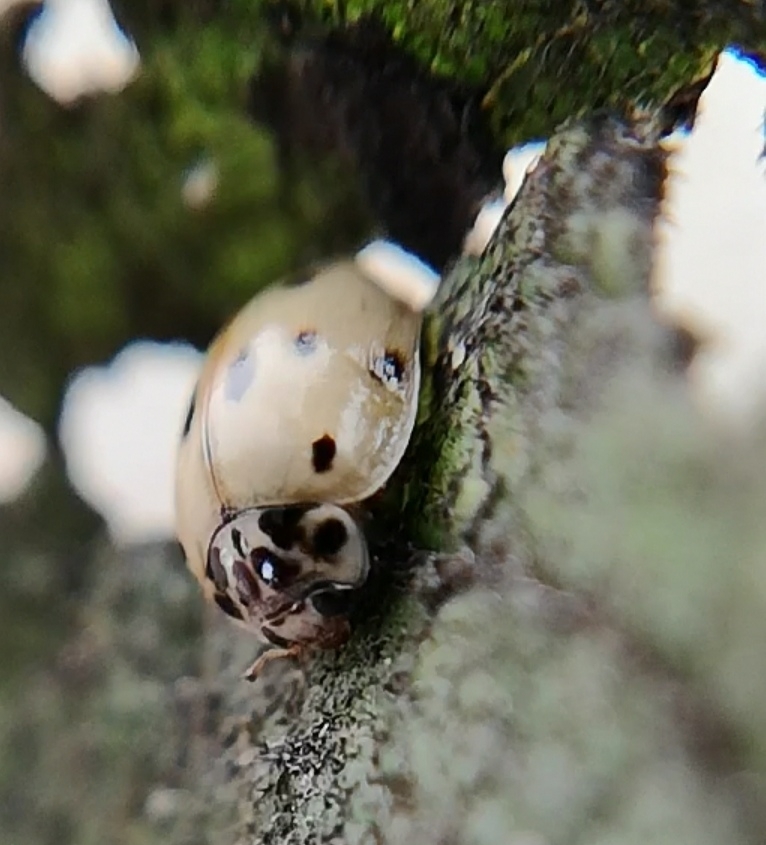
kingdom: Animalia
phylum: Arthropoda
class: Insecta
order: Coleoptera
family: Coccinellidae
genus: Adalia
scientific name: Adalia decempunctata
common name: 10-spot ladybird
